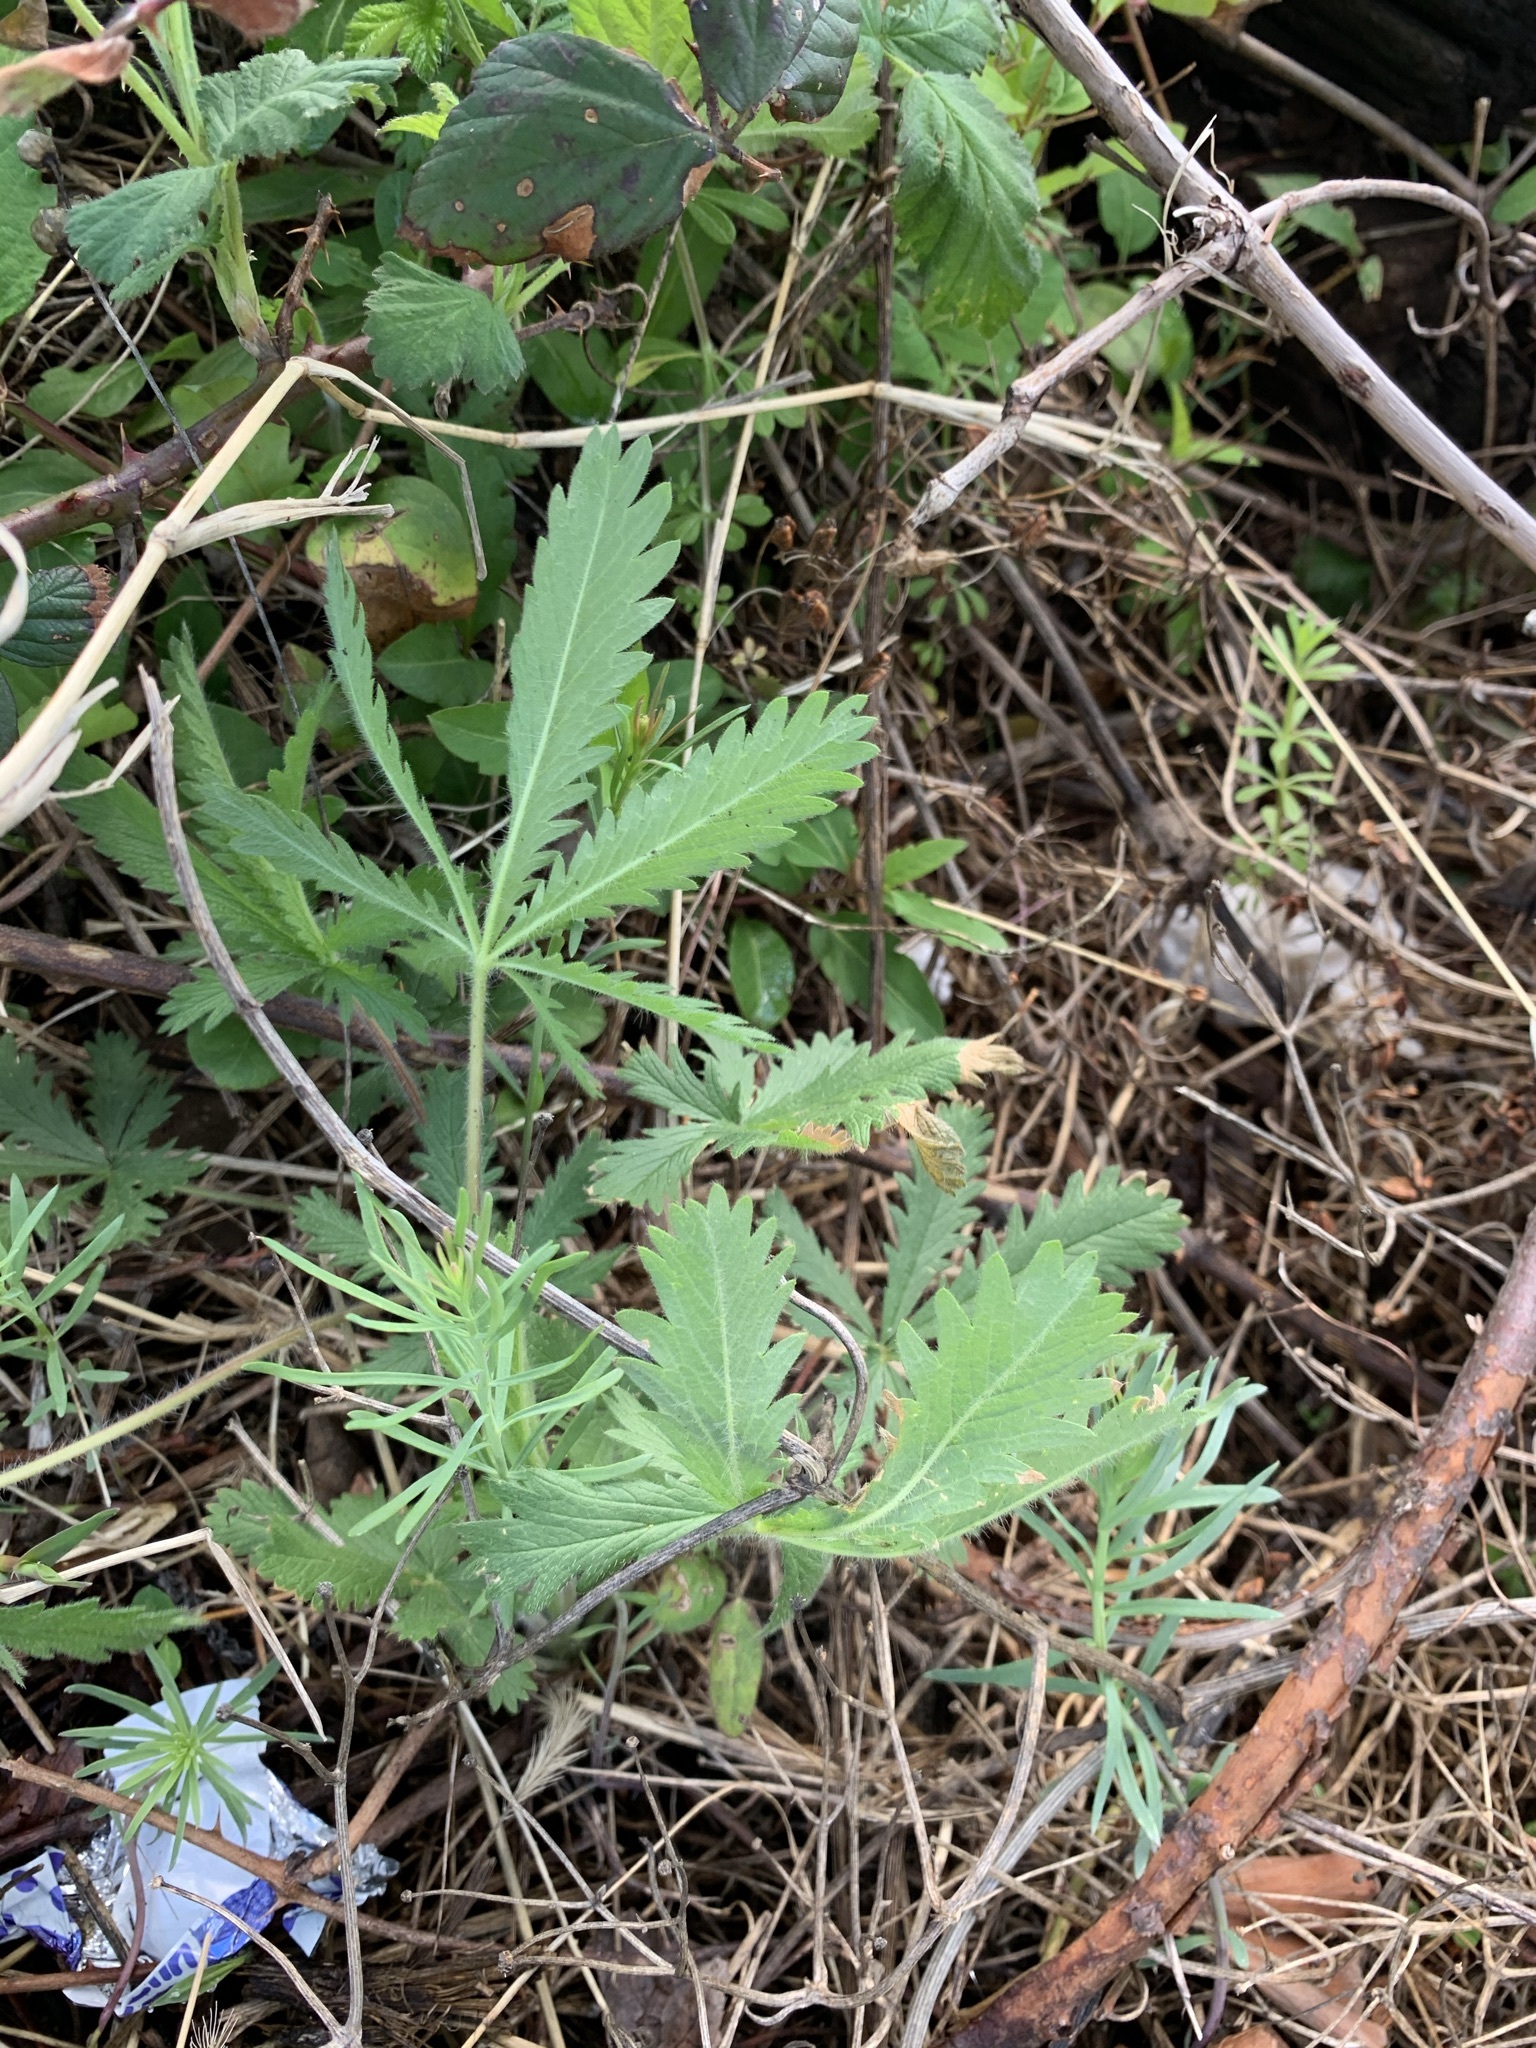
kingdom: Plantae
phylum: Tracheophyta
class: Magnoliopsida
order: Rosales
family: Rosaceae
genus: Potentilla
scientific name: Potentilla recta
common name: Sulphur cinquefoil
